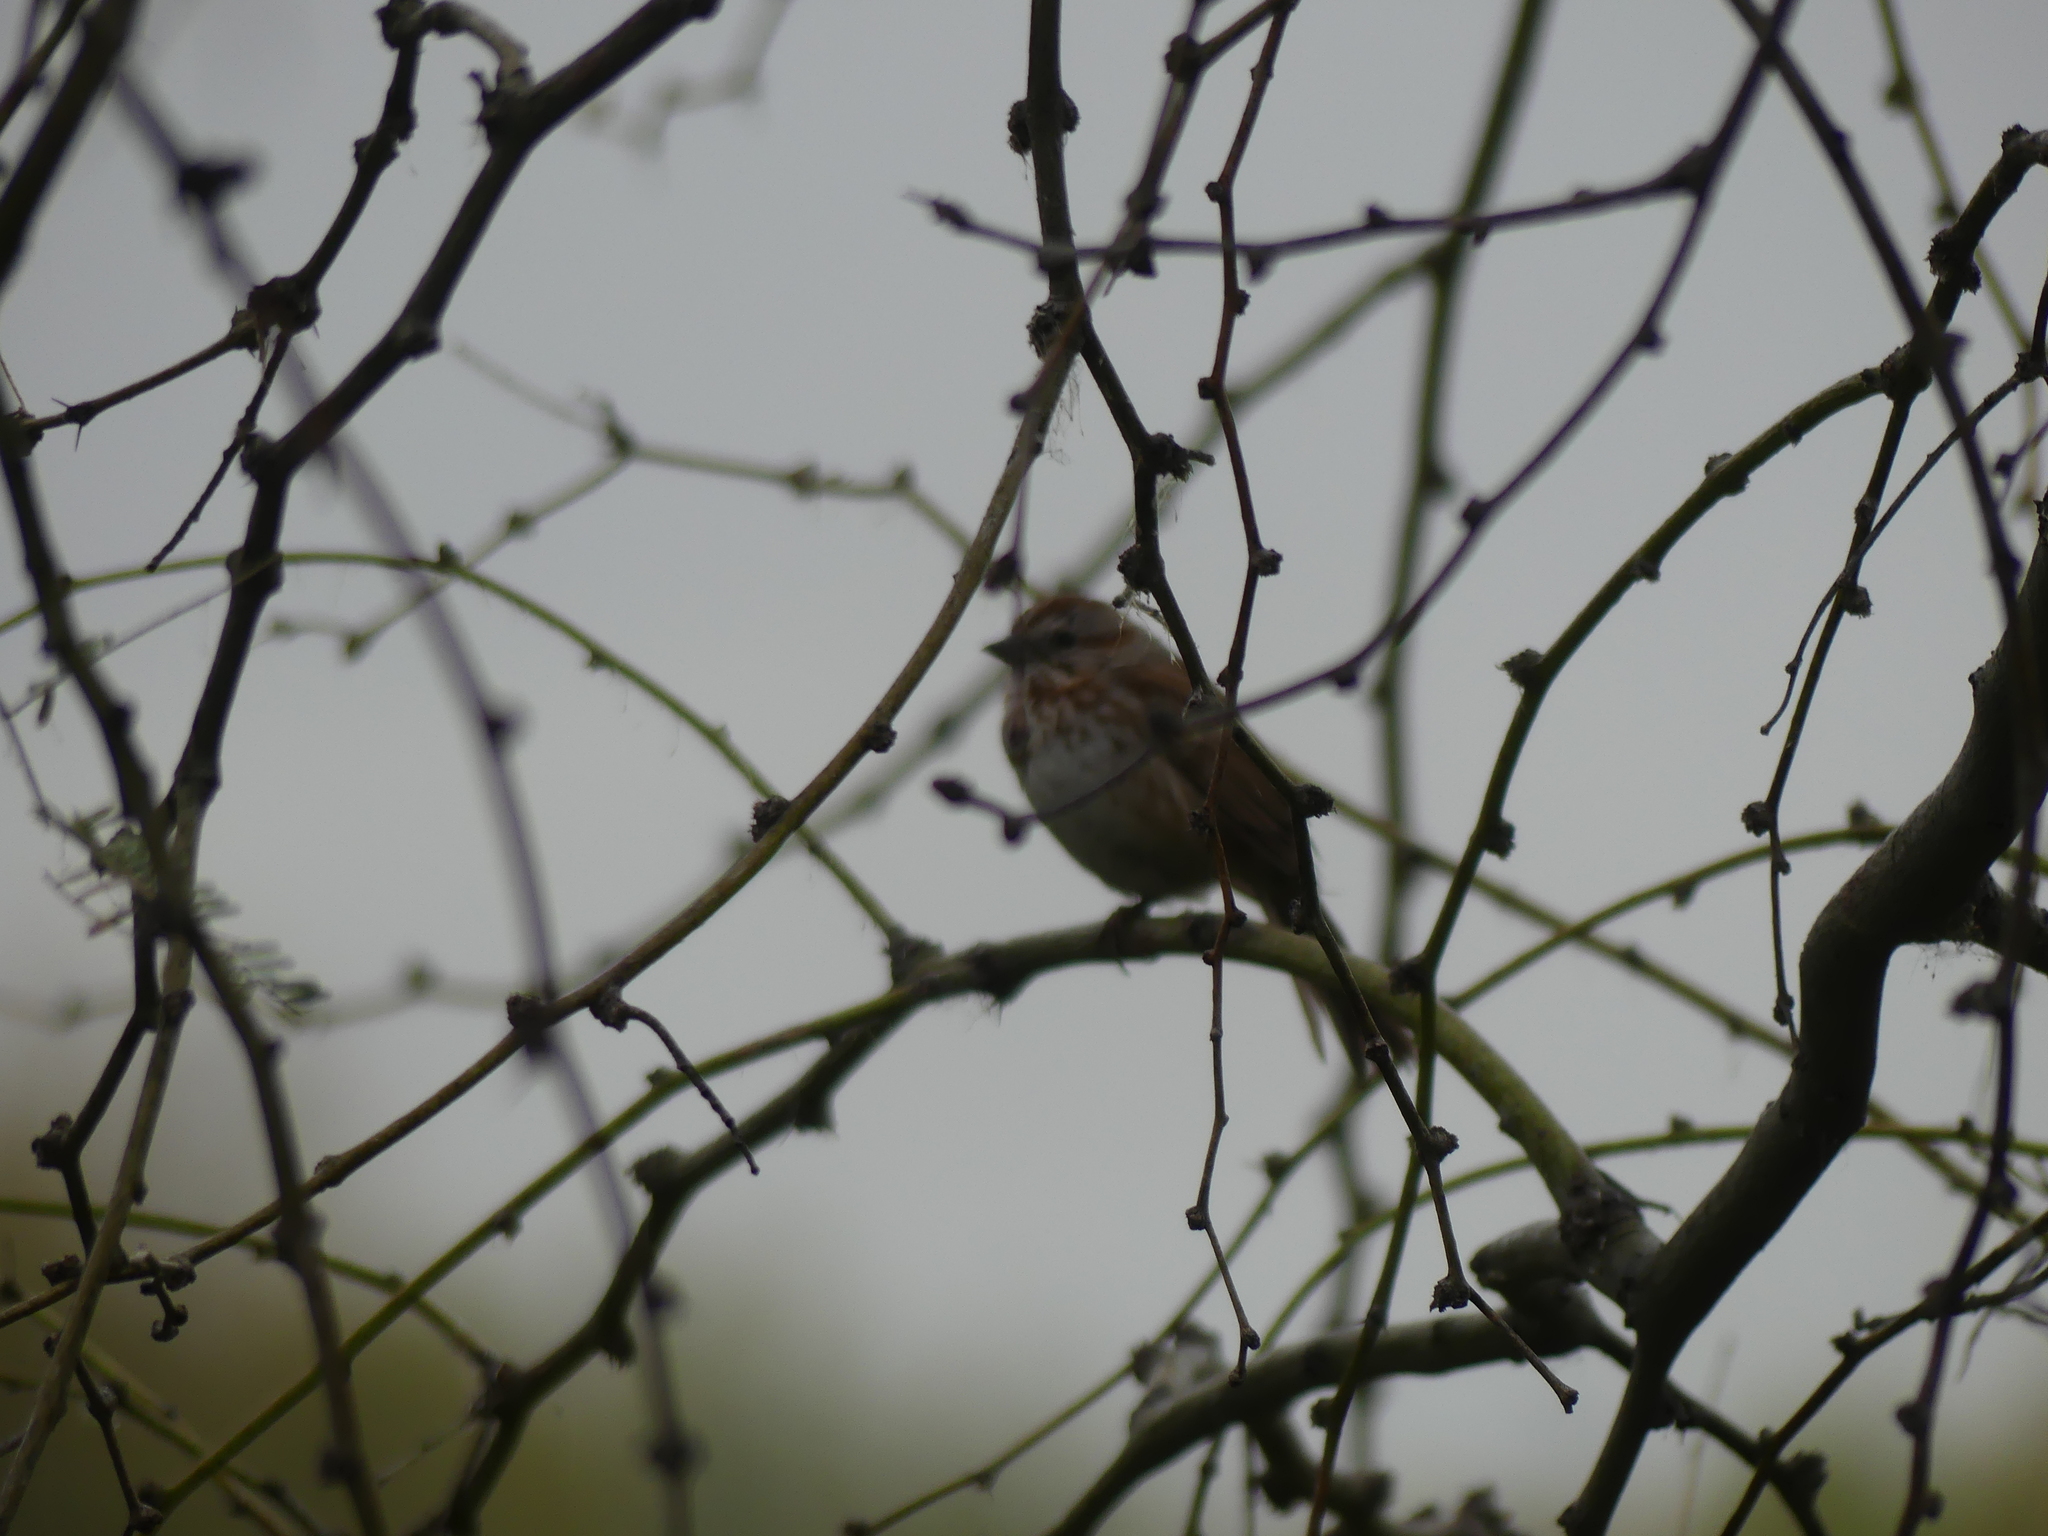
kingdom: Animalia
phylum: Chordata
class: Aves
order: Passeriformes
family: Passerellidae
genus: Melospiza
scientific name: Melospiza melodia
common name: Song sparrow
